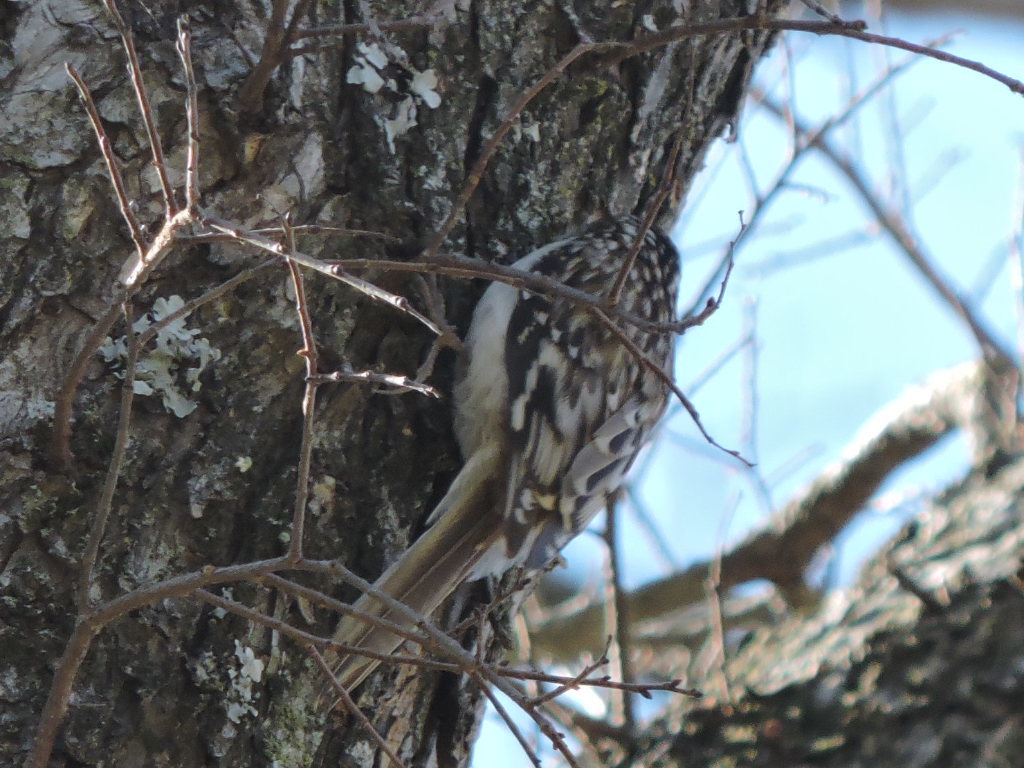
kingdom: Animalia
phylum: Chordata
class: Aves
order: Passeriformes
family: Certhiidae
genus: Certhia
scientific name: Certhia americana
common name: Brown creeper
